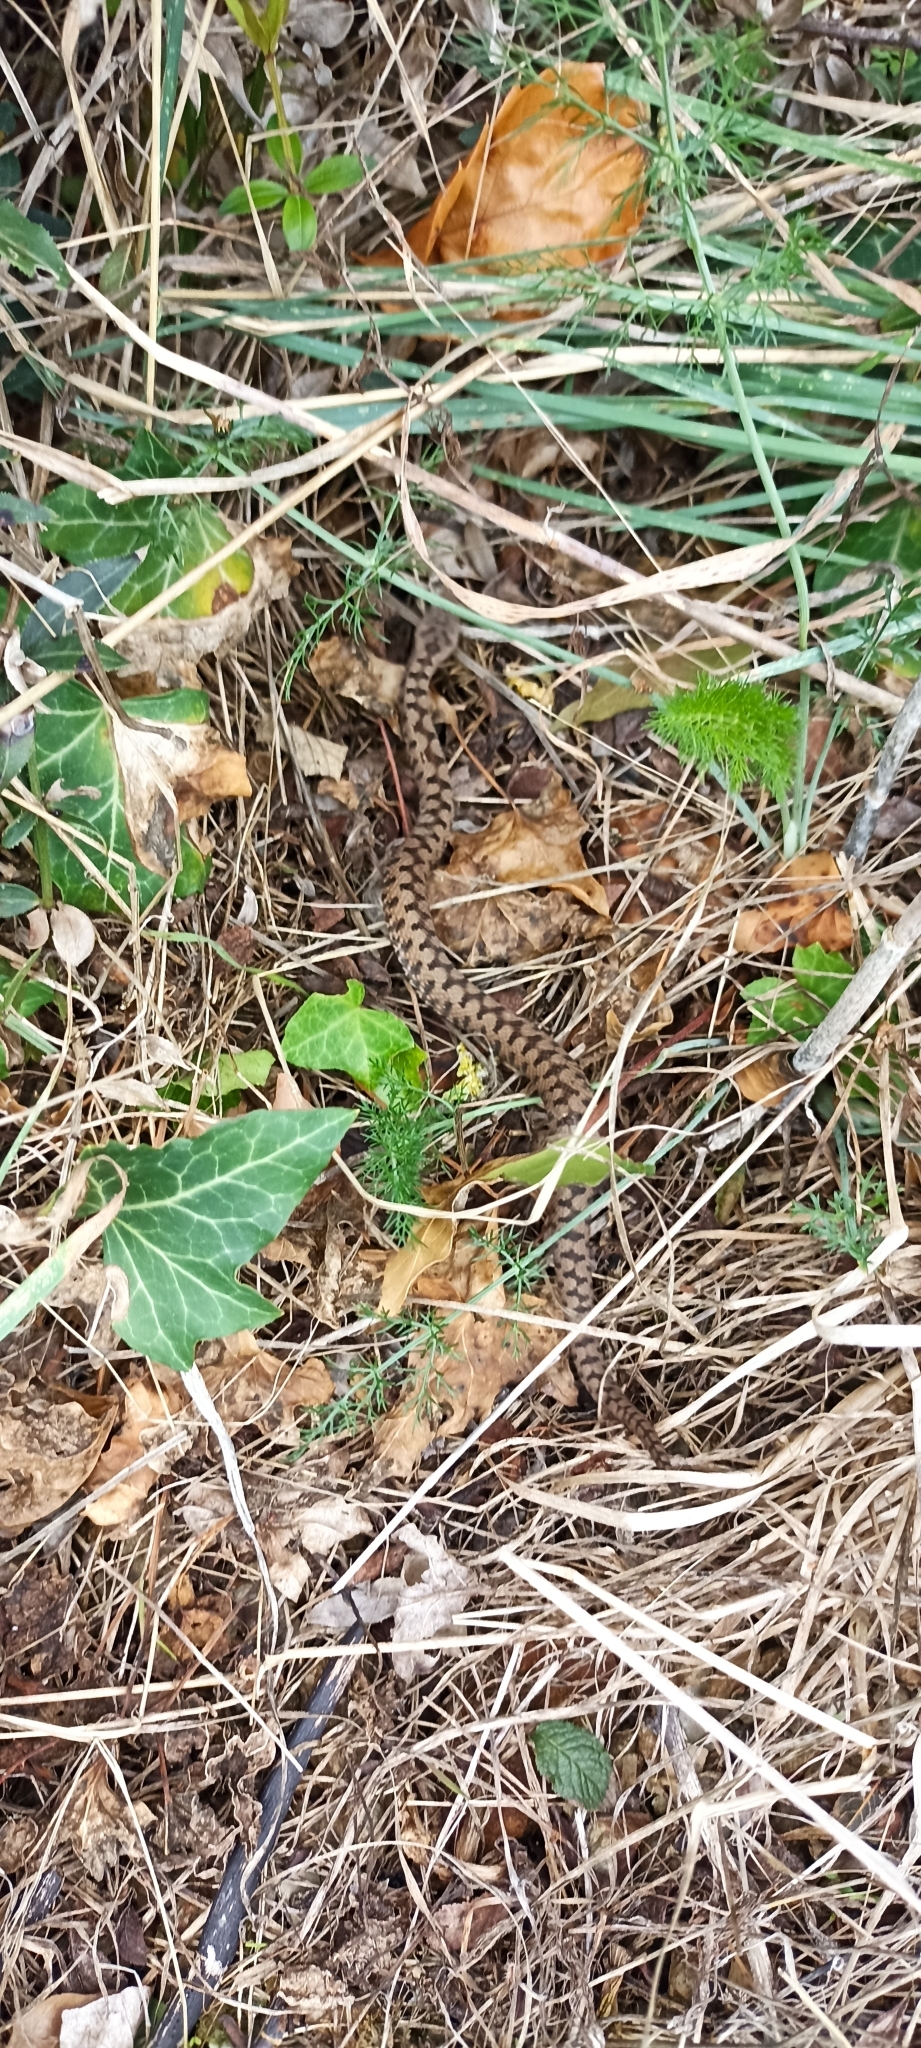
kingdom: Animalia
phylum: Chordata
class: Squamata
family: Viperidae
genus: Vipera
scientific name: Vipera aspis
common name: Asp viper
